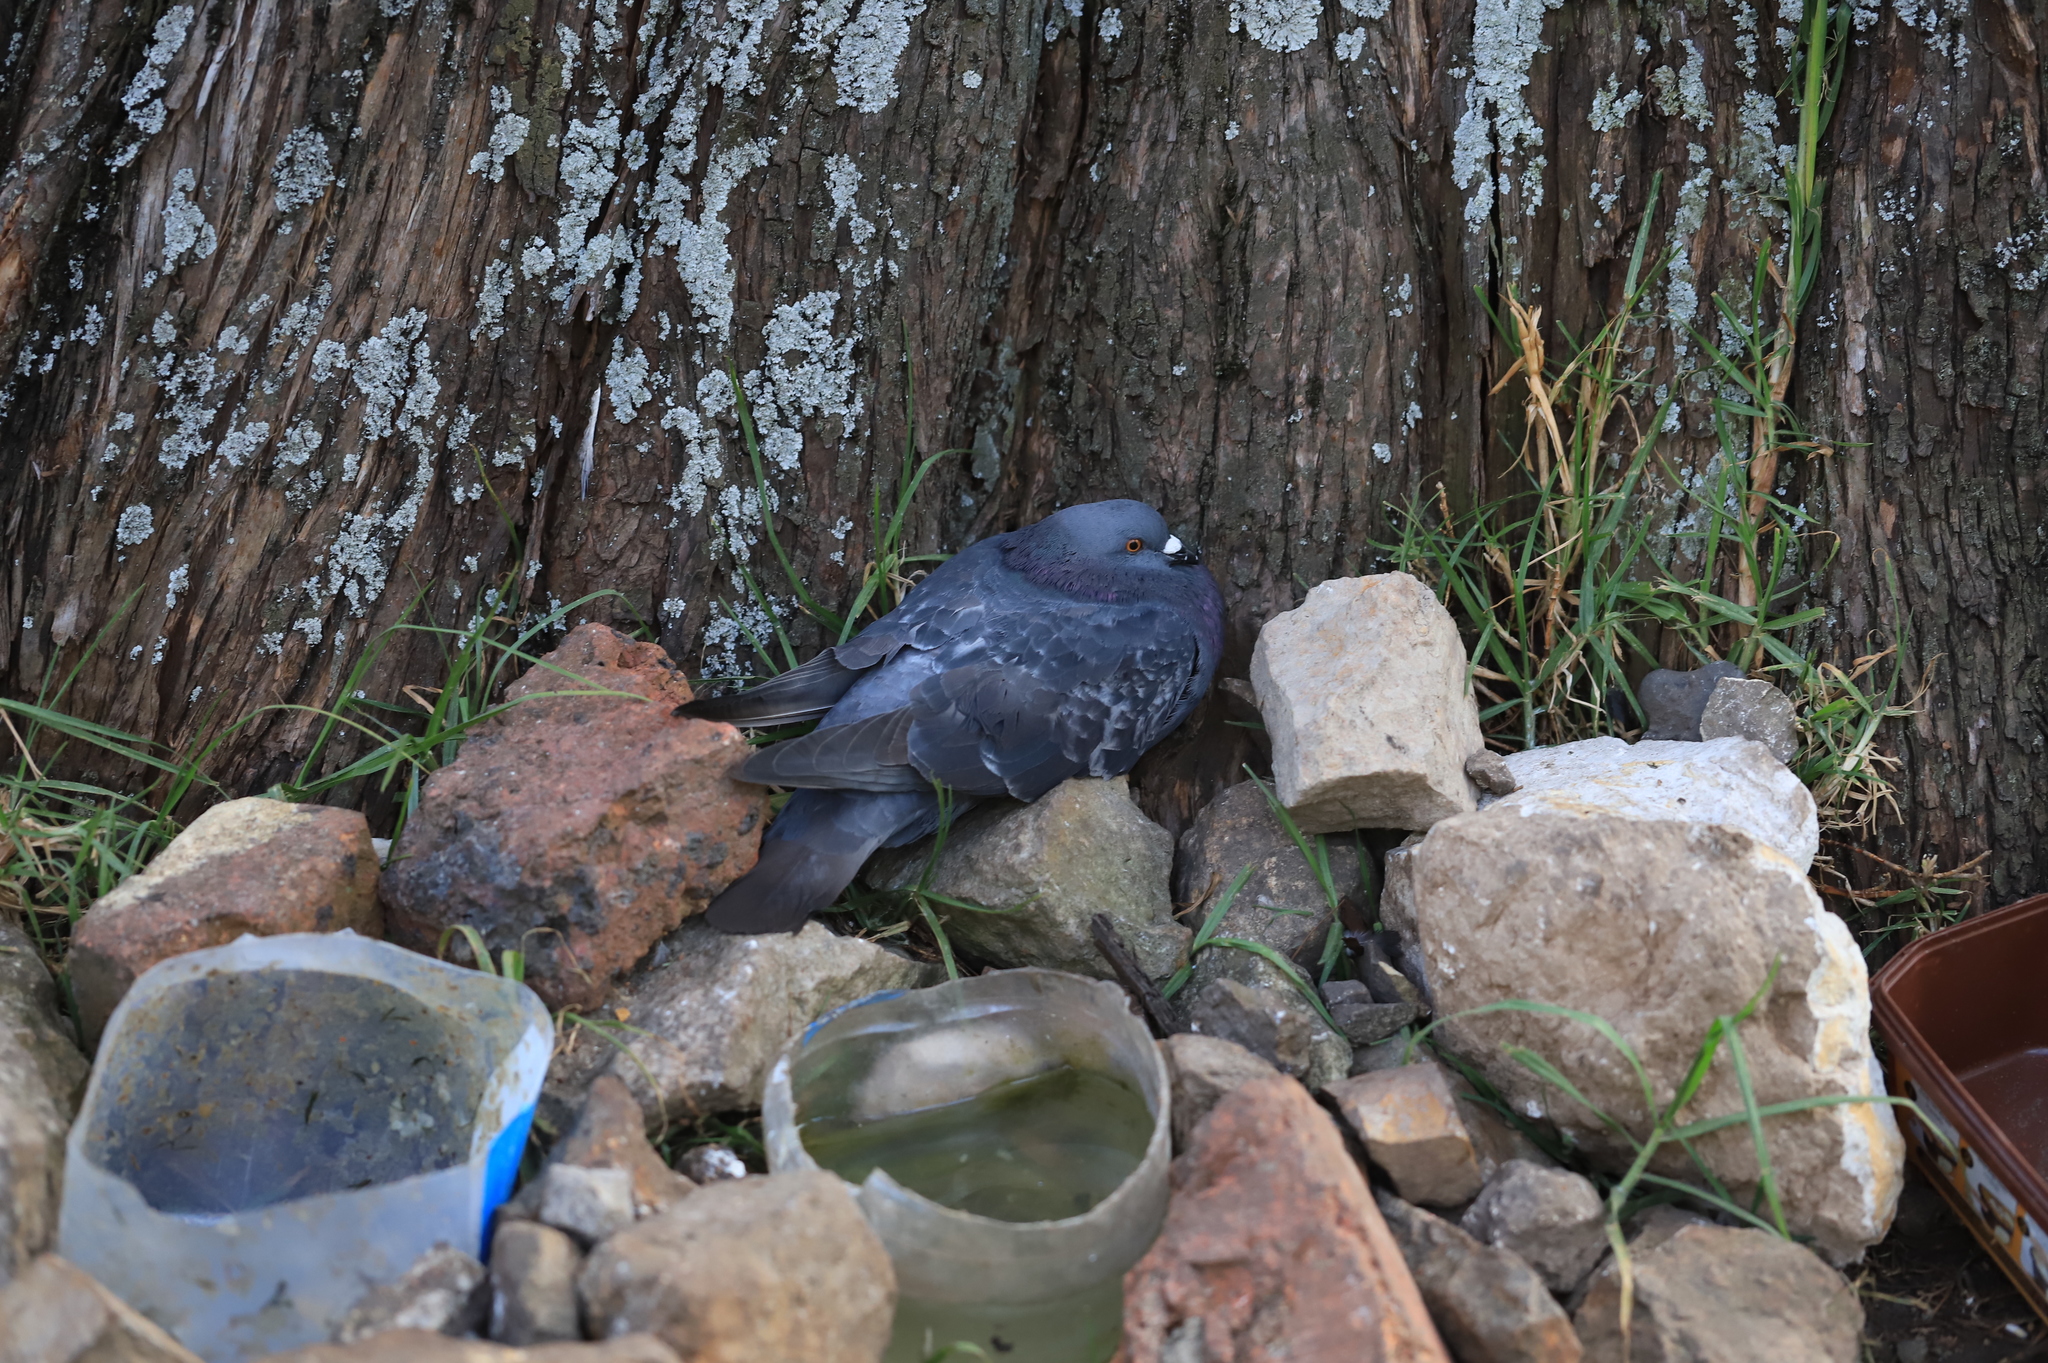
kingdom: Animalia
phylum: Chordata
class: Aves
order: Columbiformes
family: Columbidae
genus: Columba
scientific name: Columba livia
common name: Rock pigeon
